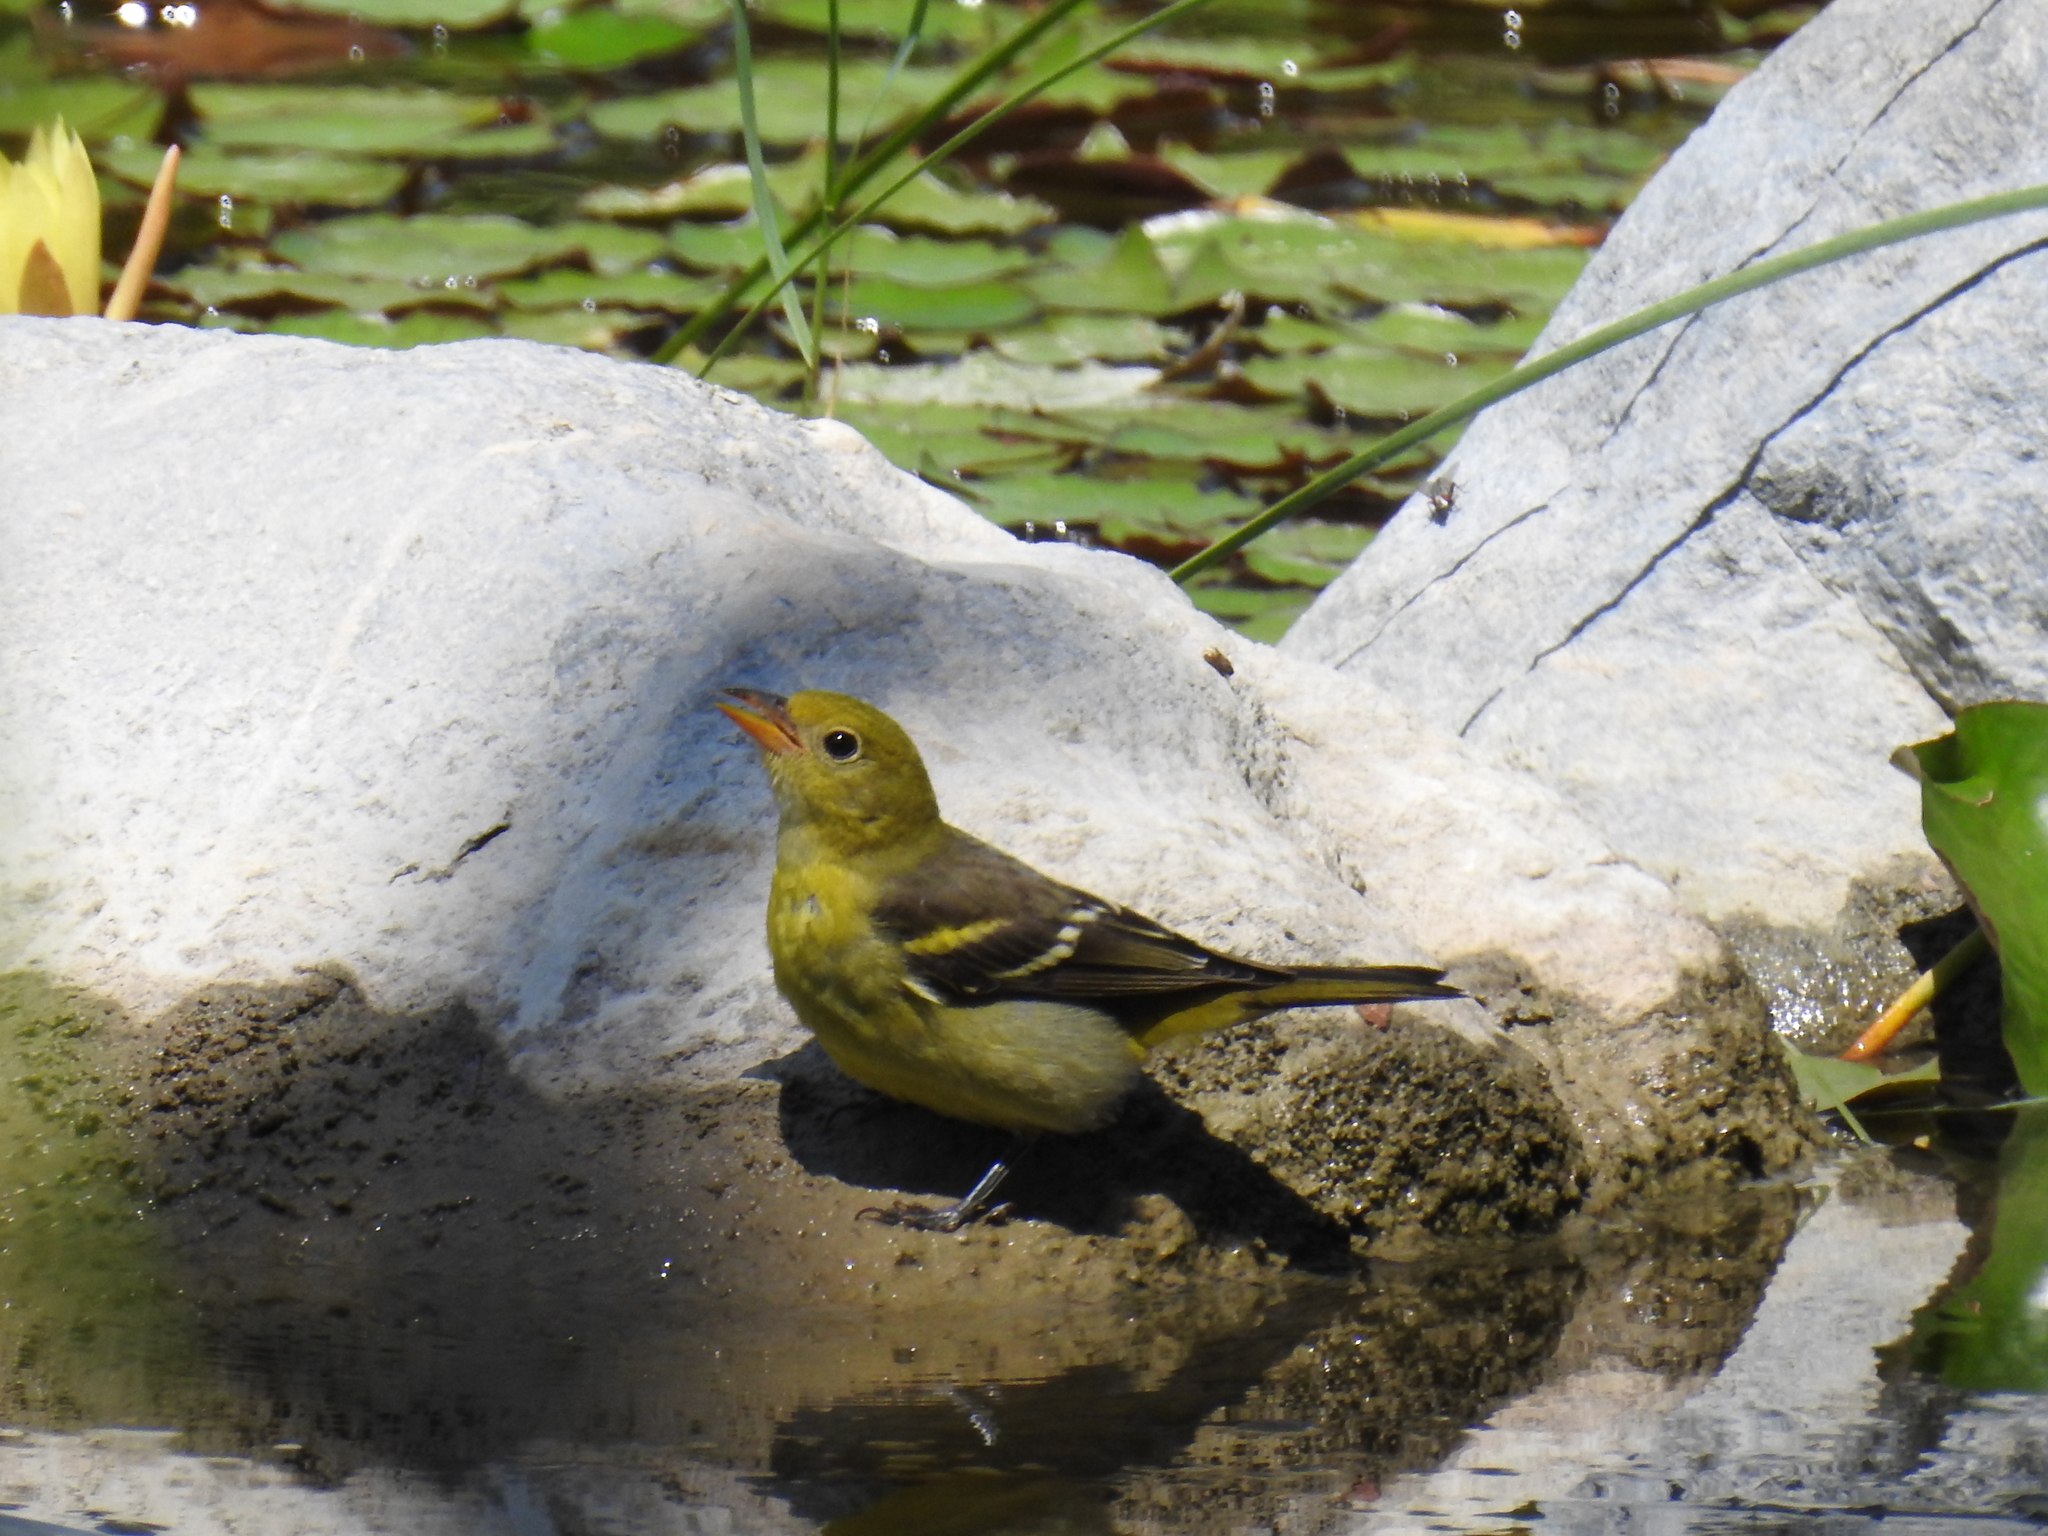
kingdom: Animalia
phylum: Chordata
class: Aves
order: Passeriformes
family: Cardinalidae
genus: Piranga
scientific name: Piranga ludoviciana
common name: Western tanager
